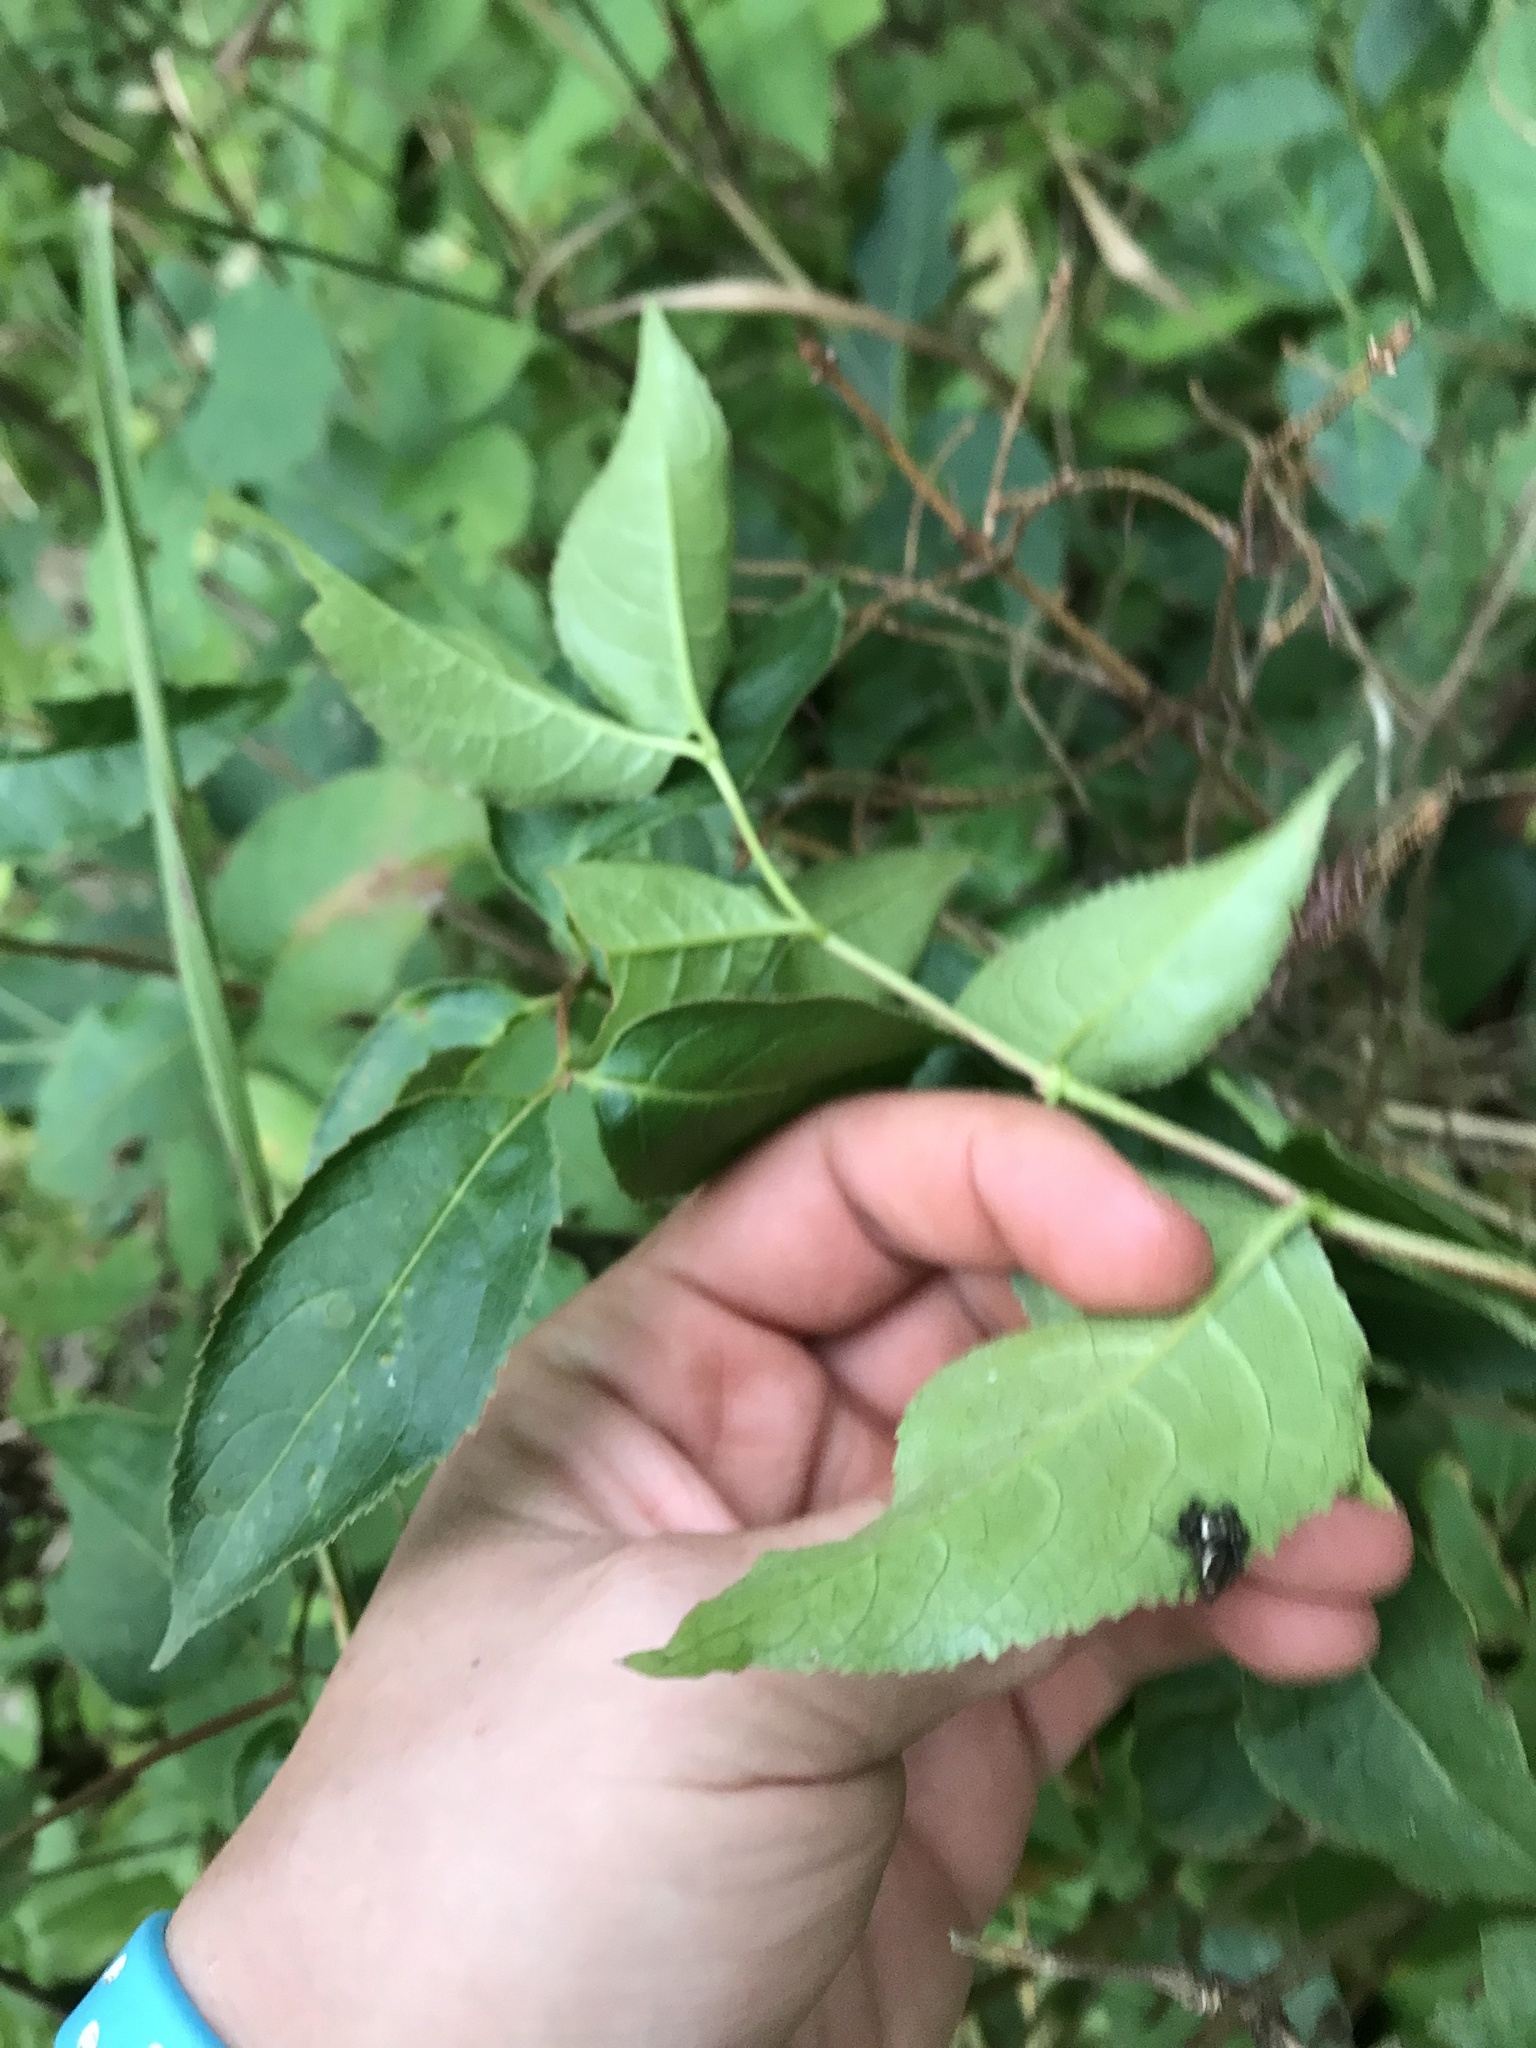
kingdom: Plantae
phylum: Tracheophyta
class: Magnoliopsida
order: Dipsacales
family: Caprifoliaceae
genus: Diervilla
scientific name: Diervilla lonicera
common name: Bush-honeysuckle
